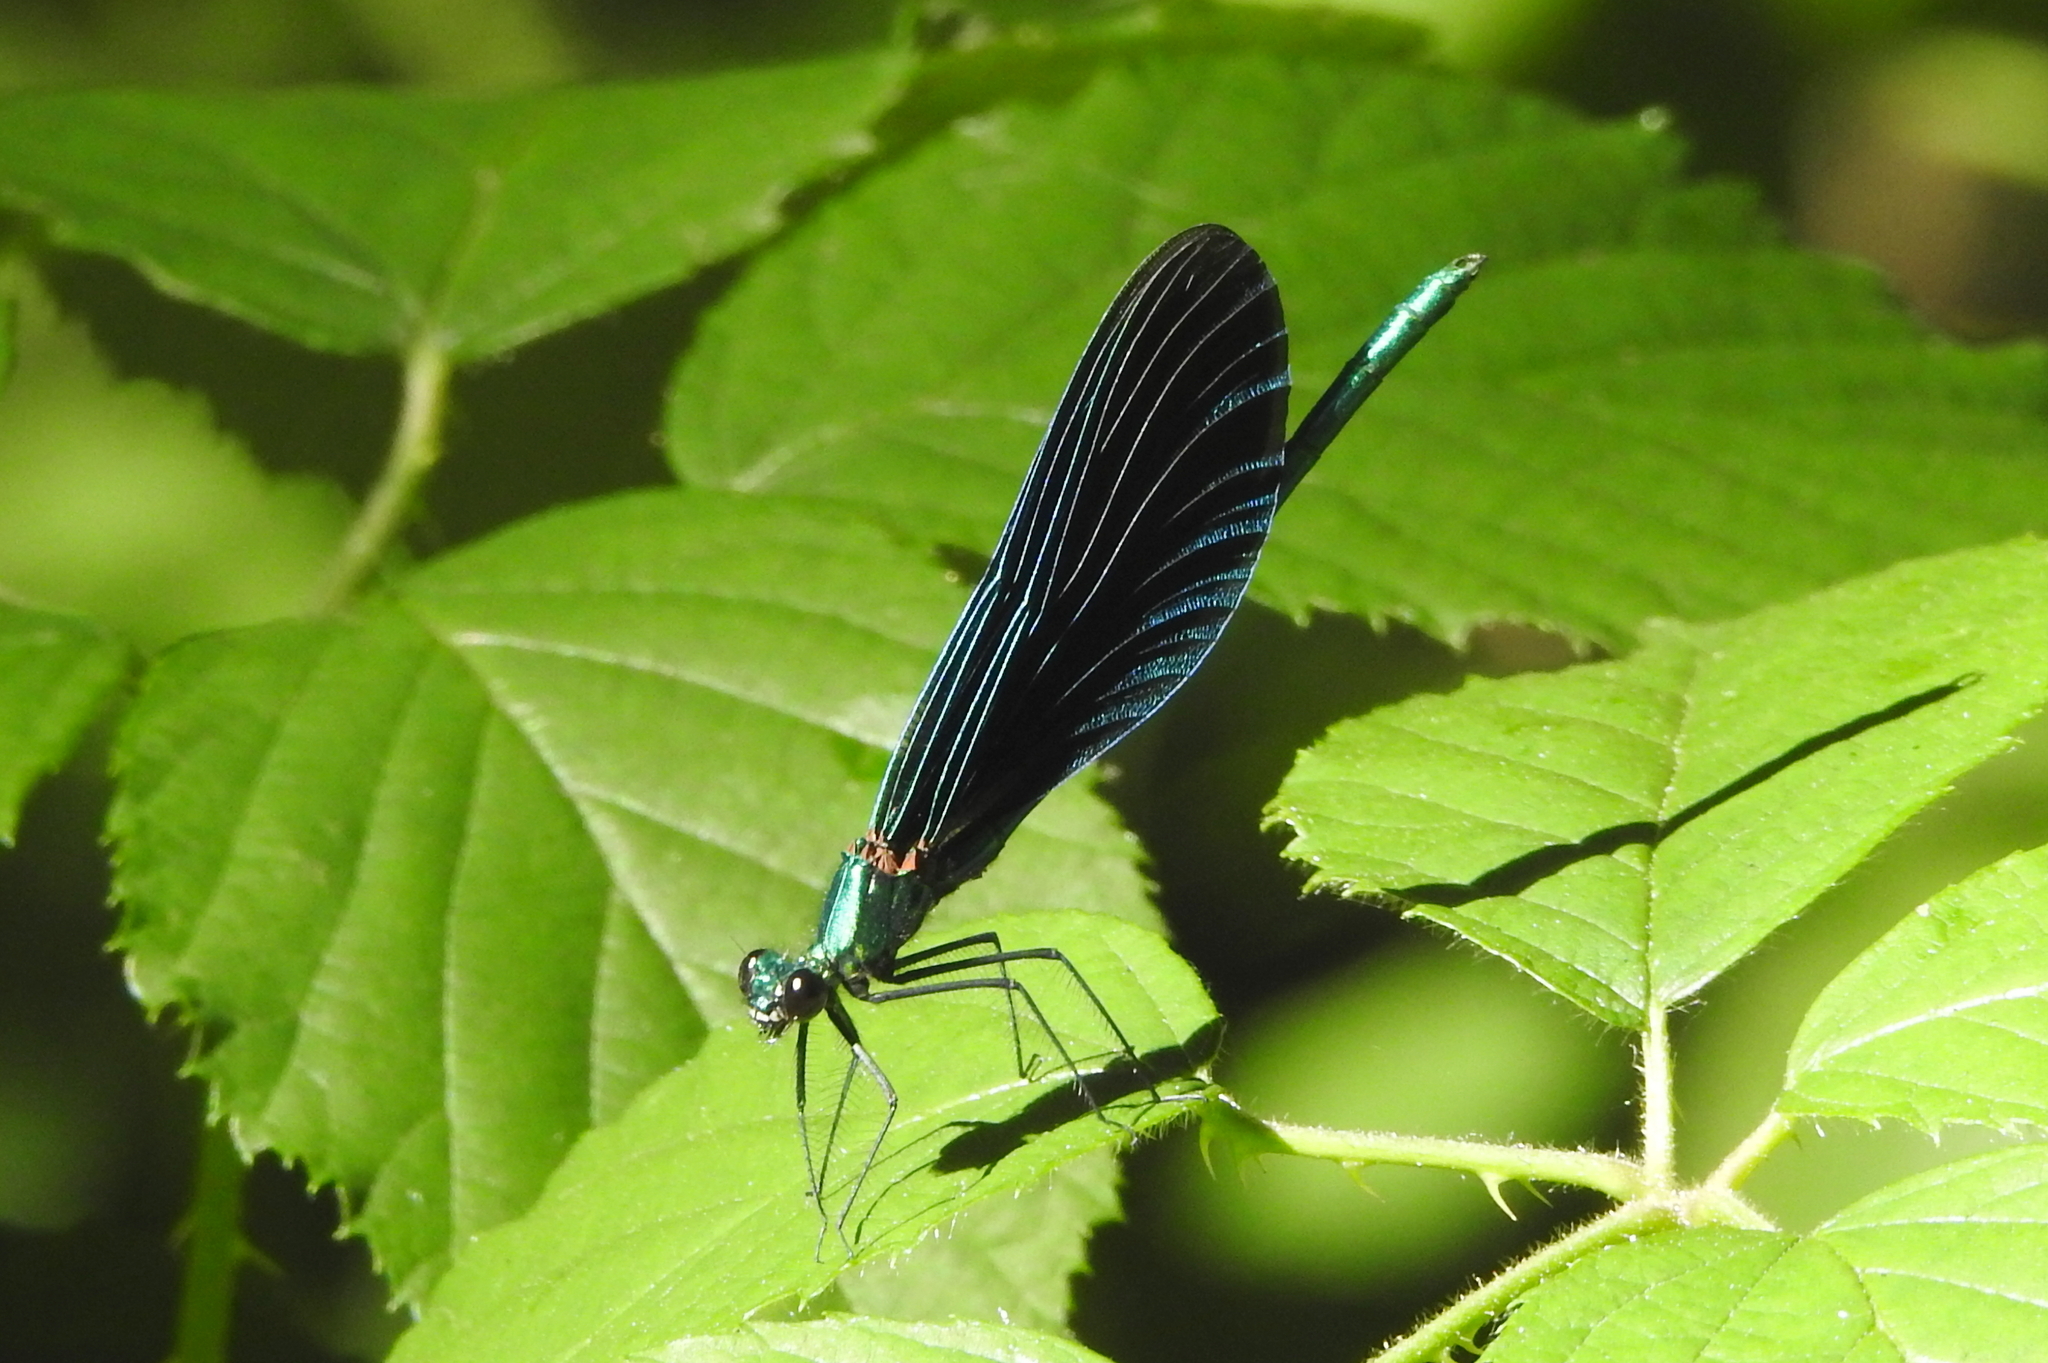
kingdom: Animalia
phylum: Arthropoda
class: Insecta
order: Odonata
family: Calopterygidae
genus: Calopteryx
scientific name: Calopteryx virgo
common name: Beautiful demoiselle
